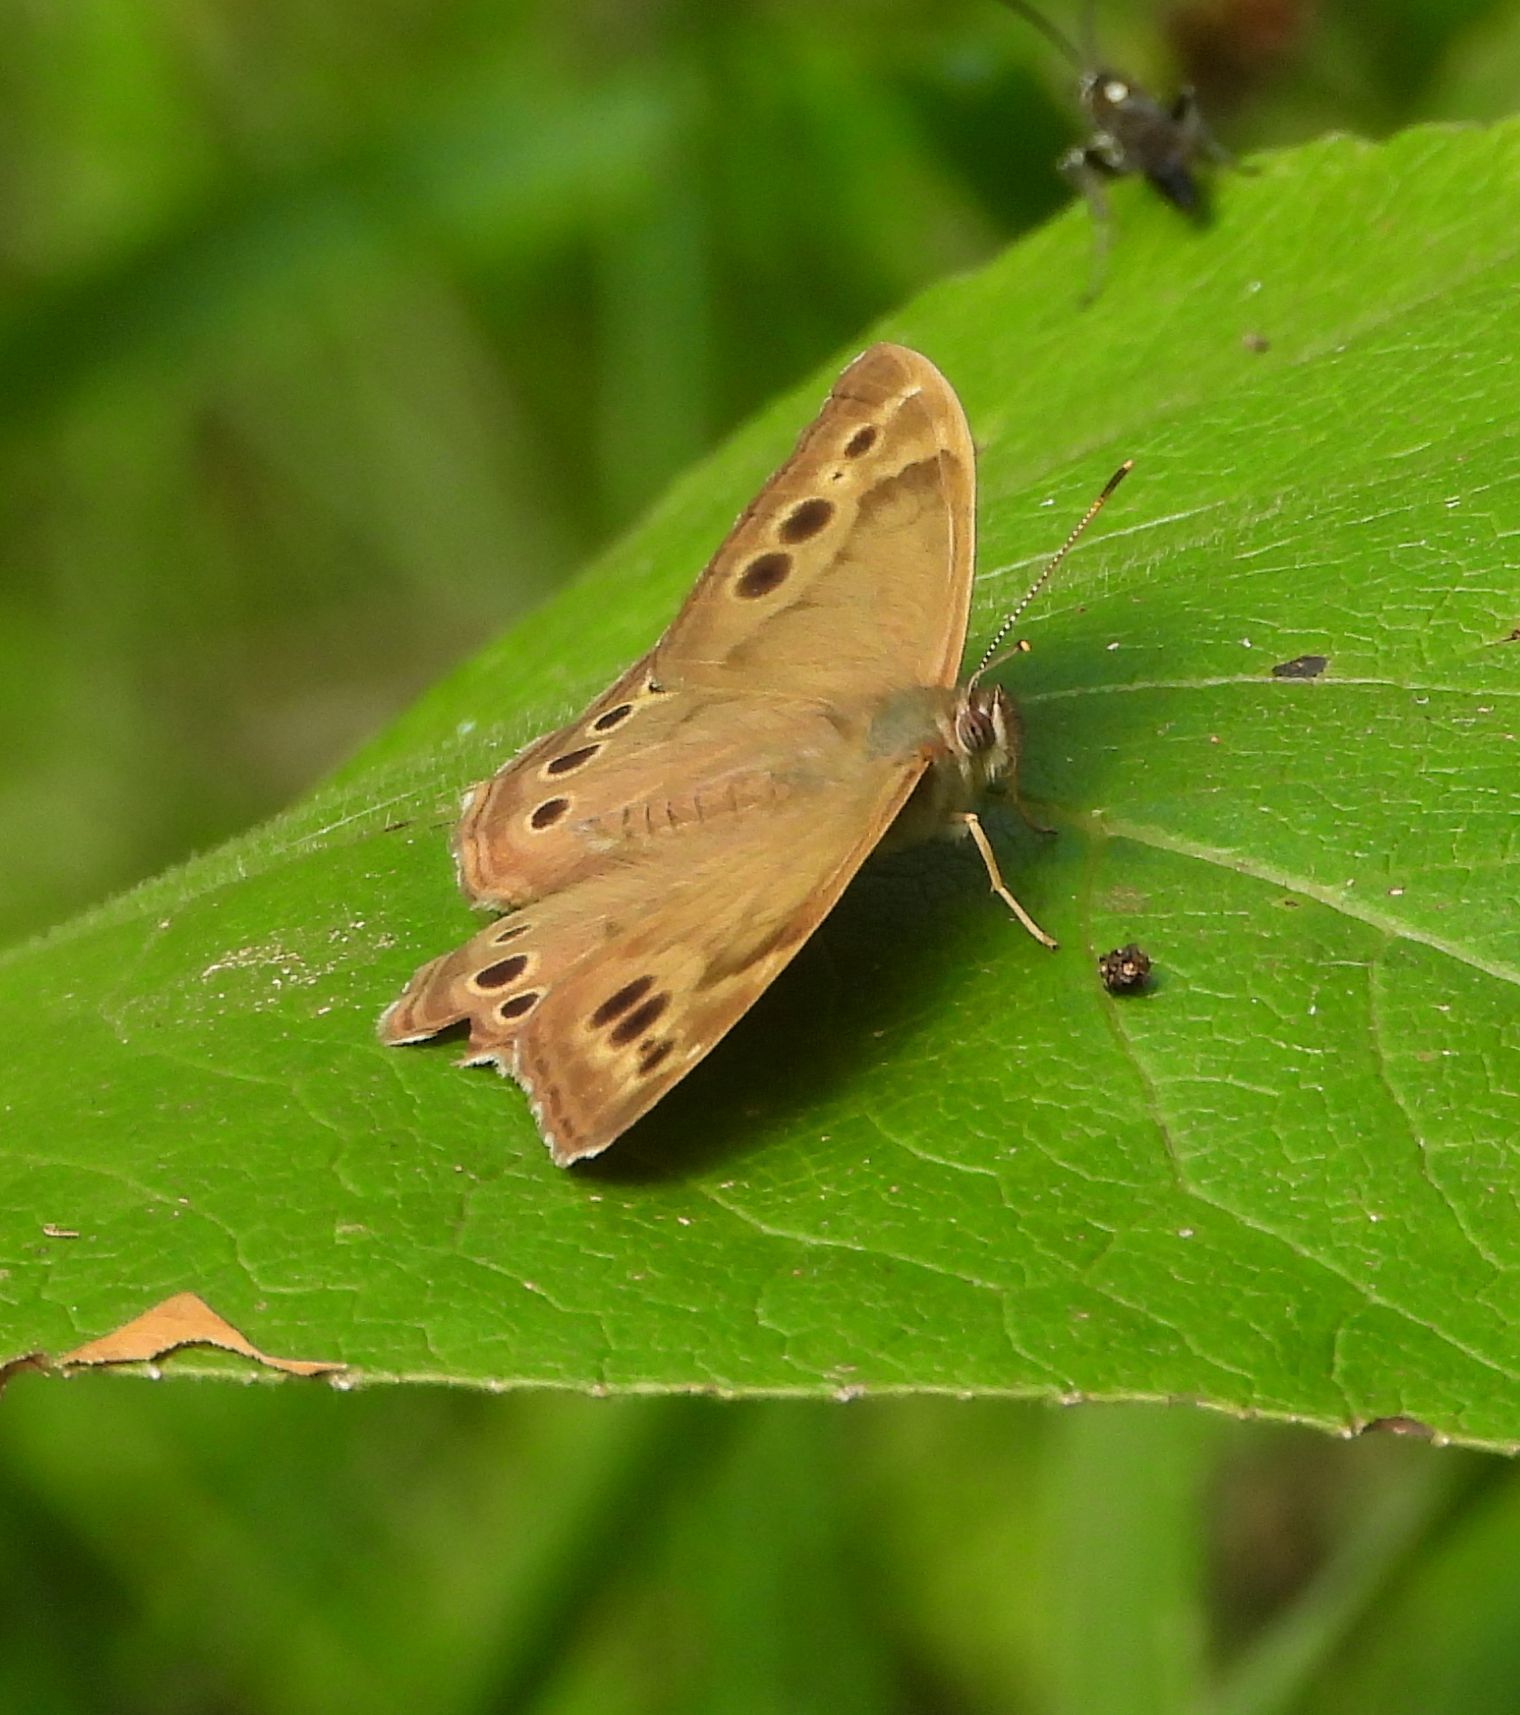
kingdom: Animalia
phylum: Arthropoda
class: Insecta
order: Lepidoptera
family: Nymphalidae
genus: Lethe
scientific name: Lethe anthedon
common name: Northern pearly-eye
